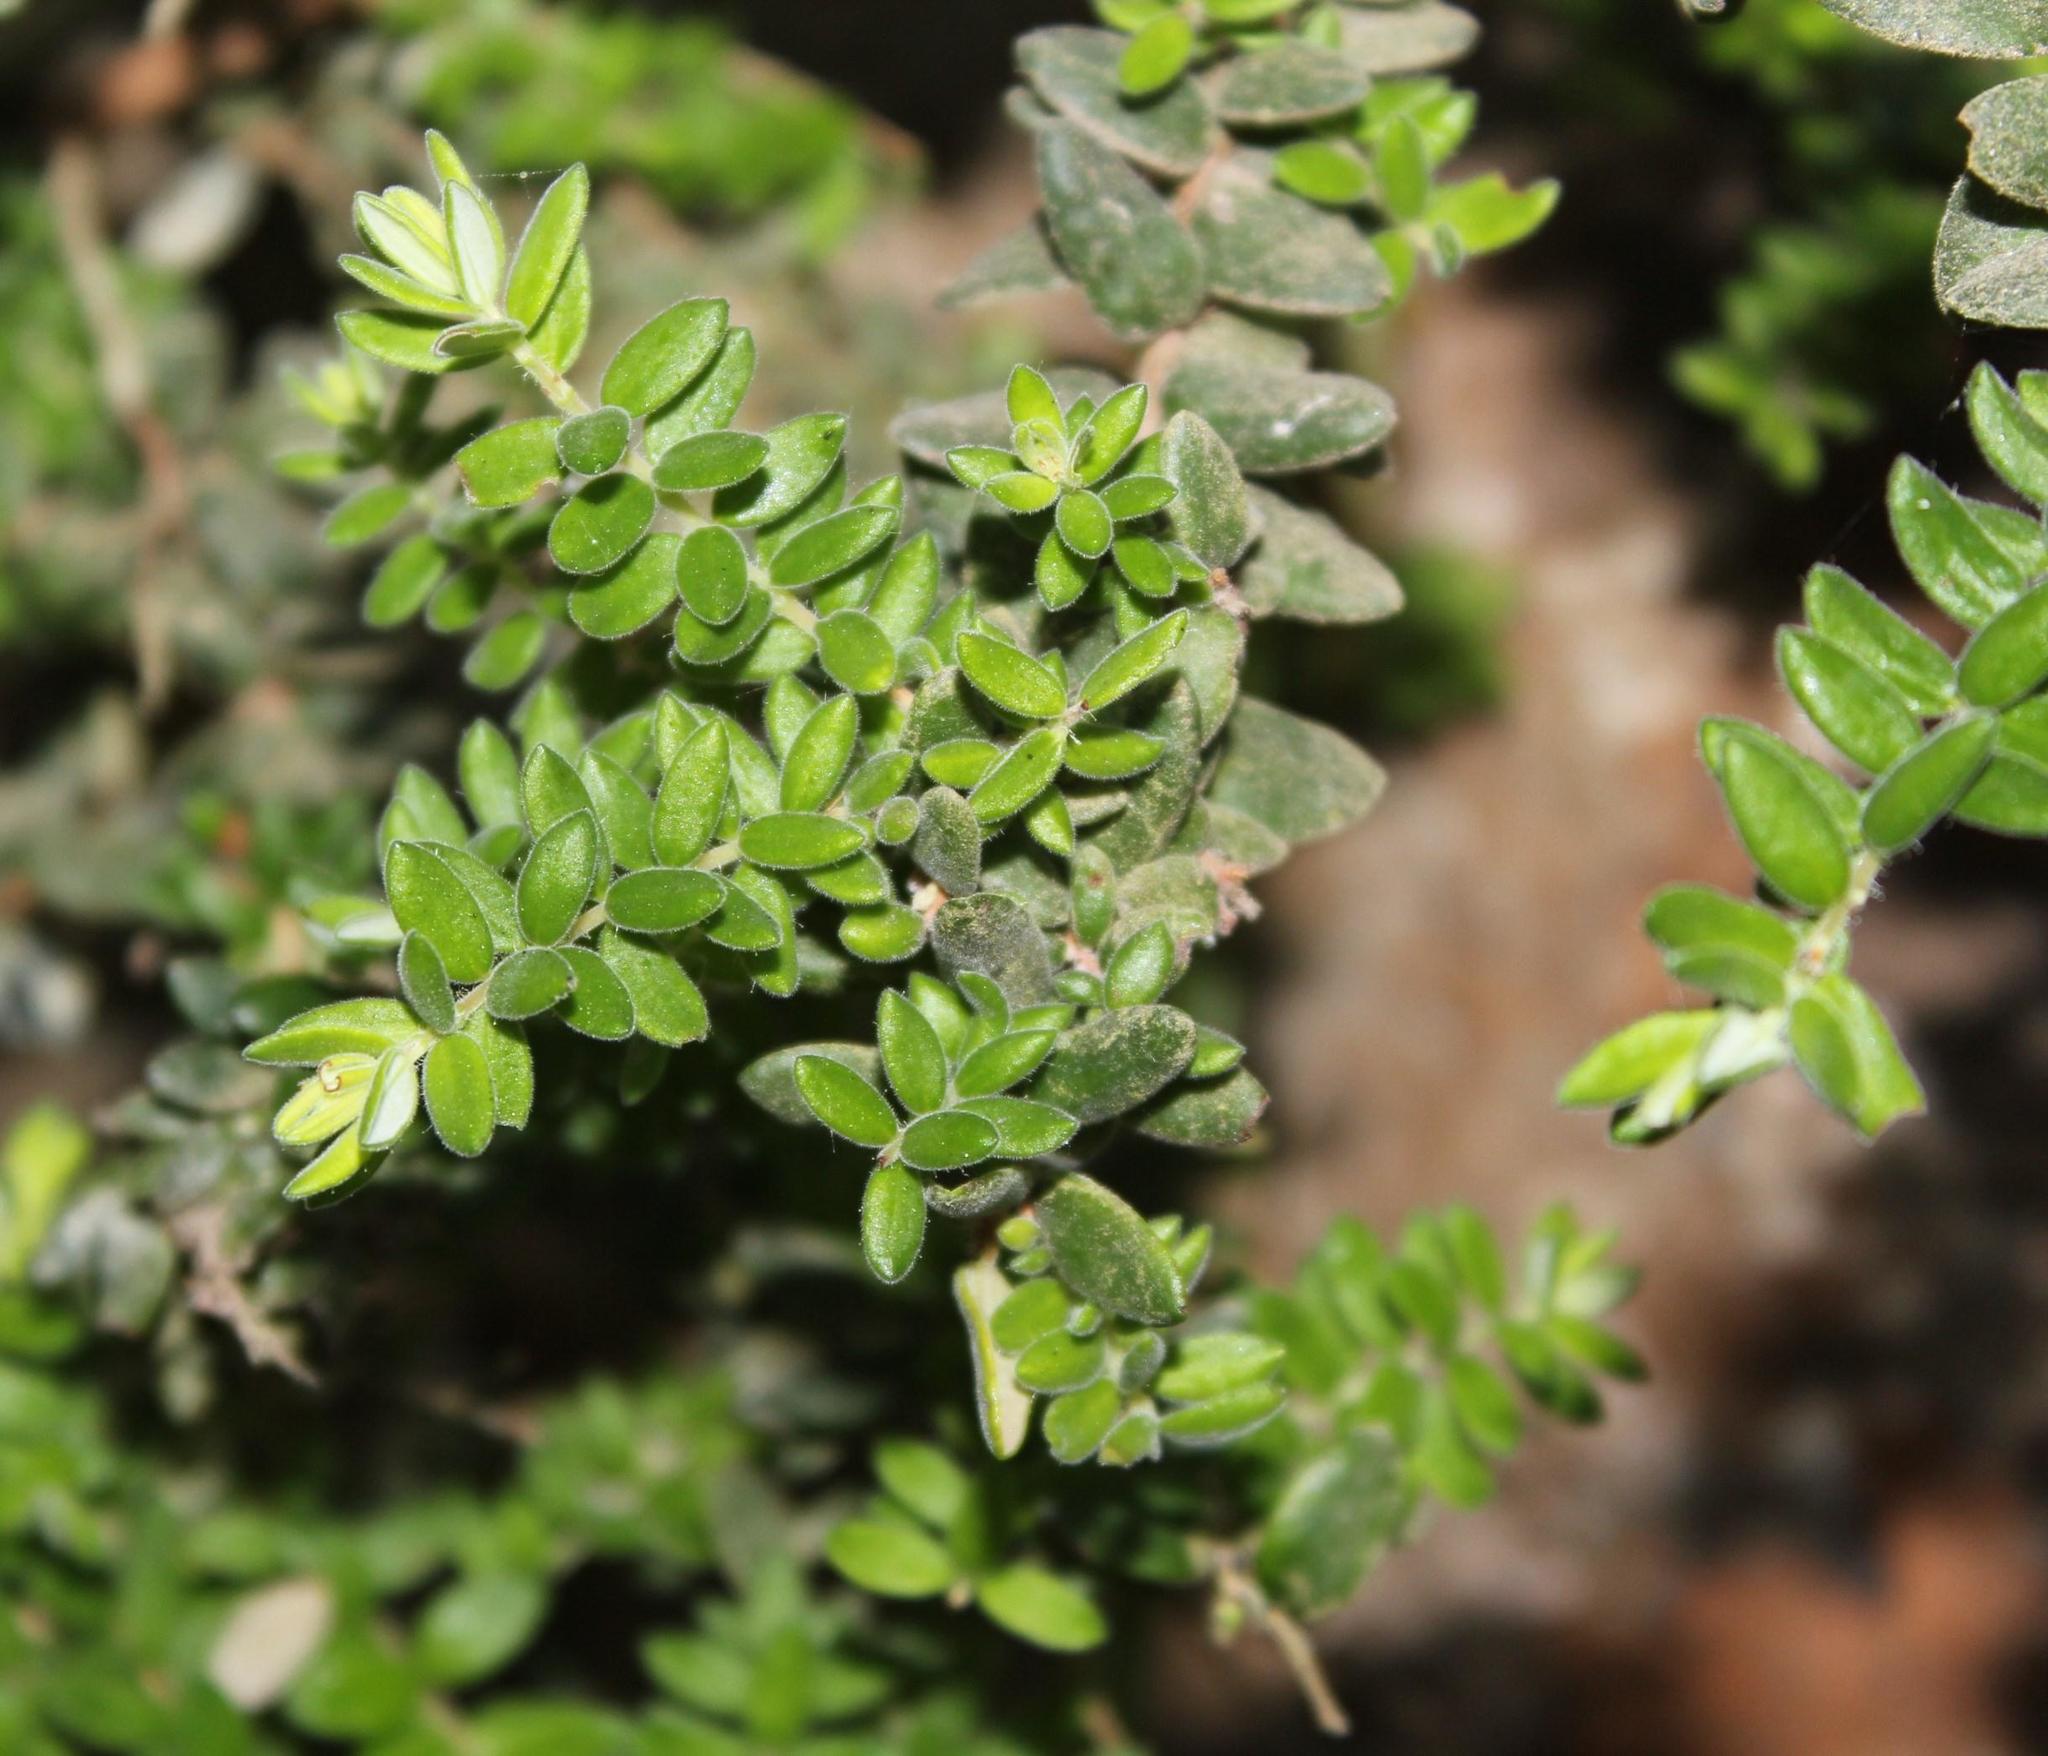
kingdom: Plantae
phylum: Tracheophyta
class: Magnoliopsida
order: Ericales
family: Ericaceae
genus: Erica
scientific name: Erica marifolia
